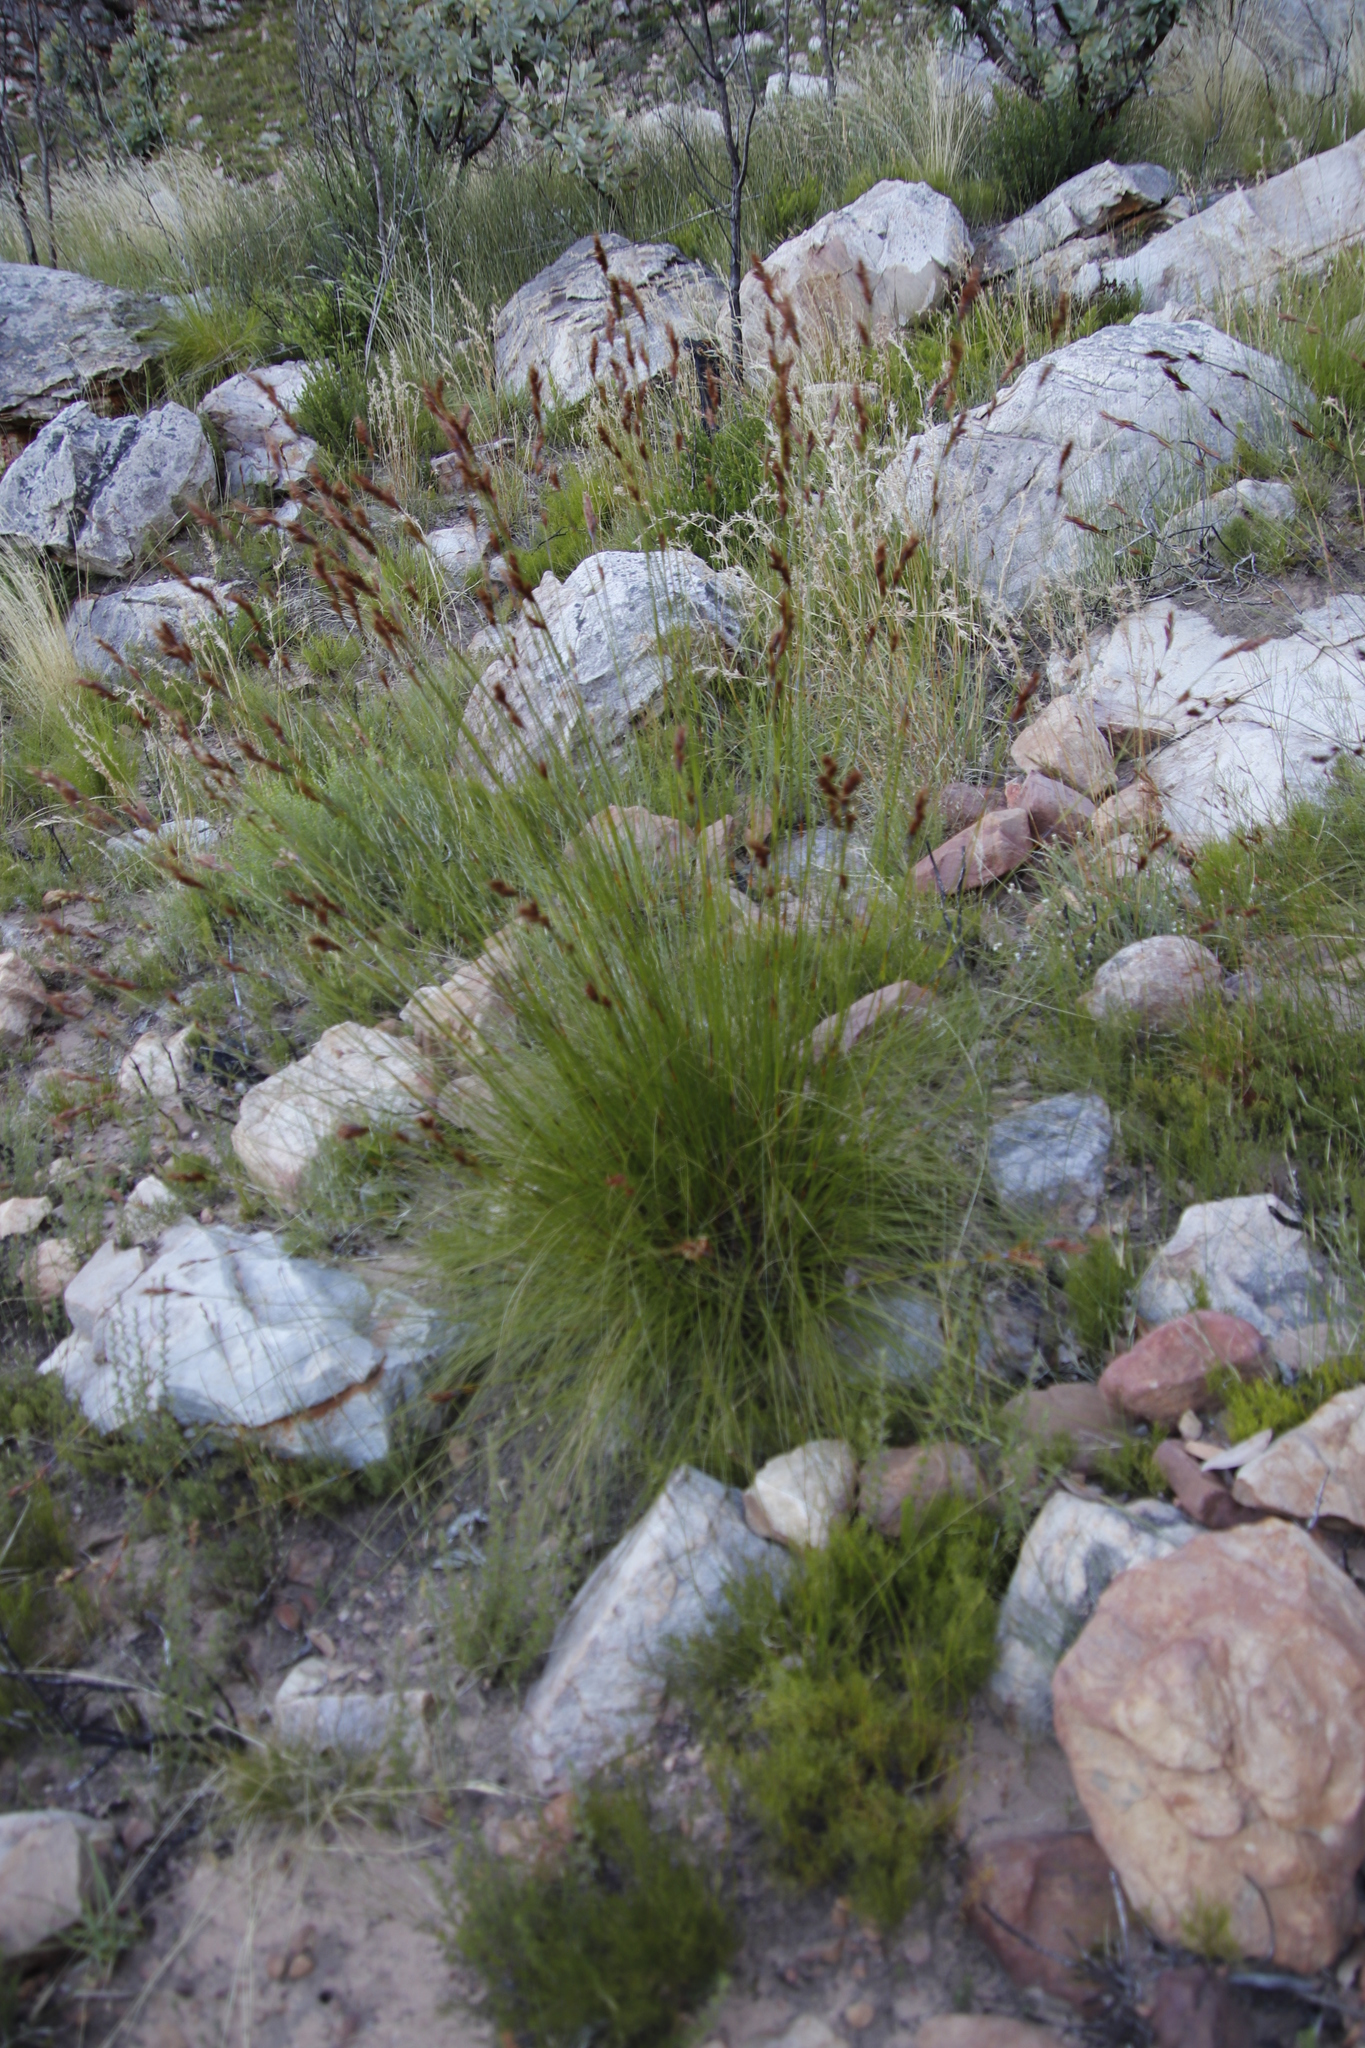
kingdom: Plantae
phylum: Tracheophyta
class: Liliopsida
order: Poales
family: Cyperaceae
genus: Tetraria
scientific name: Tetraria ustulata
